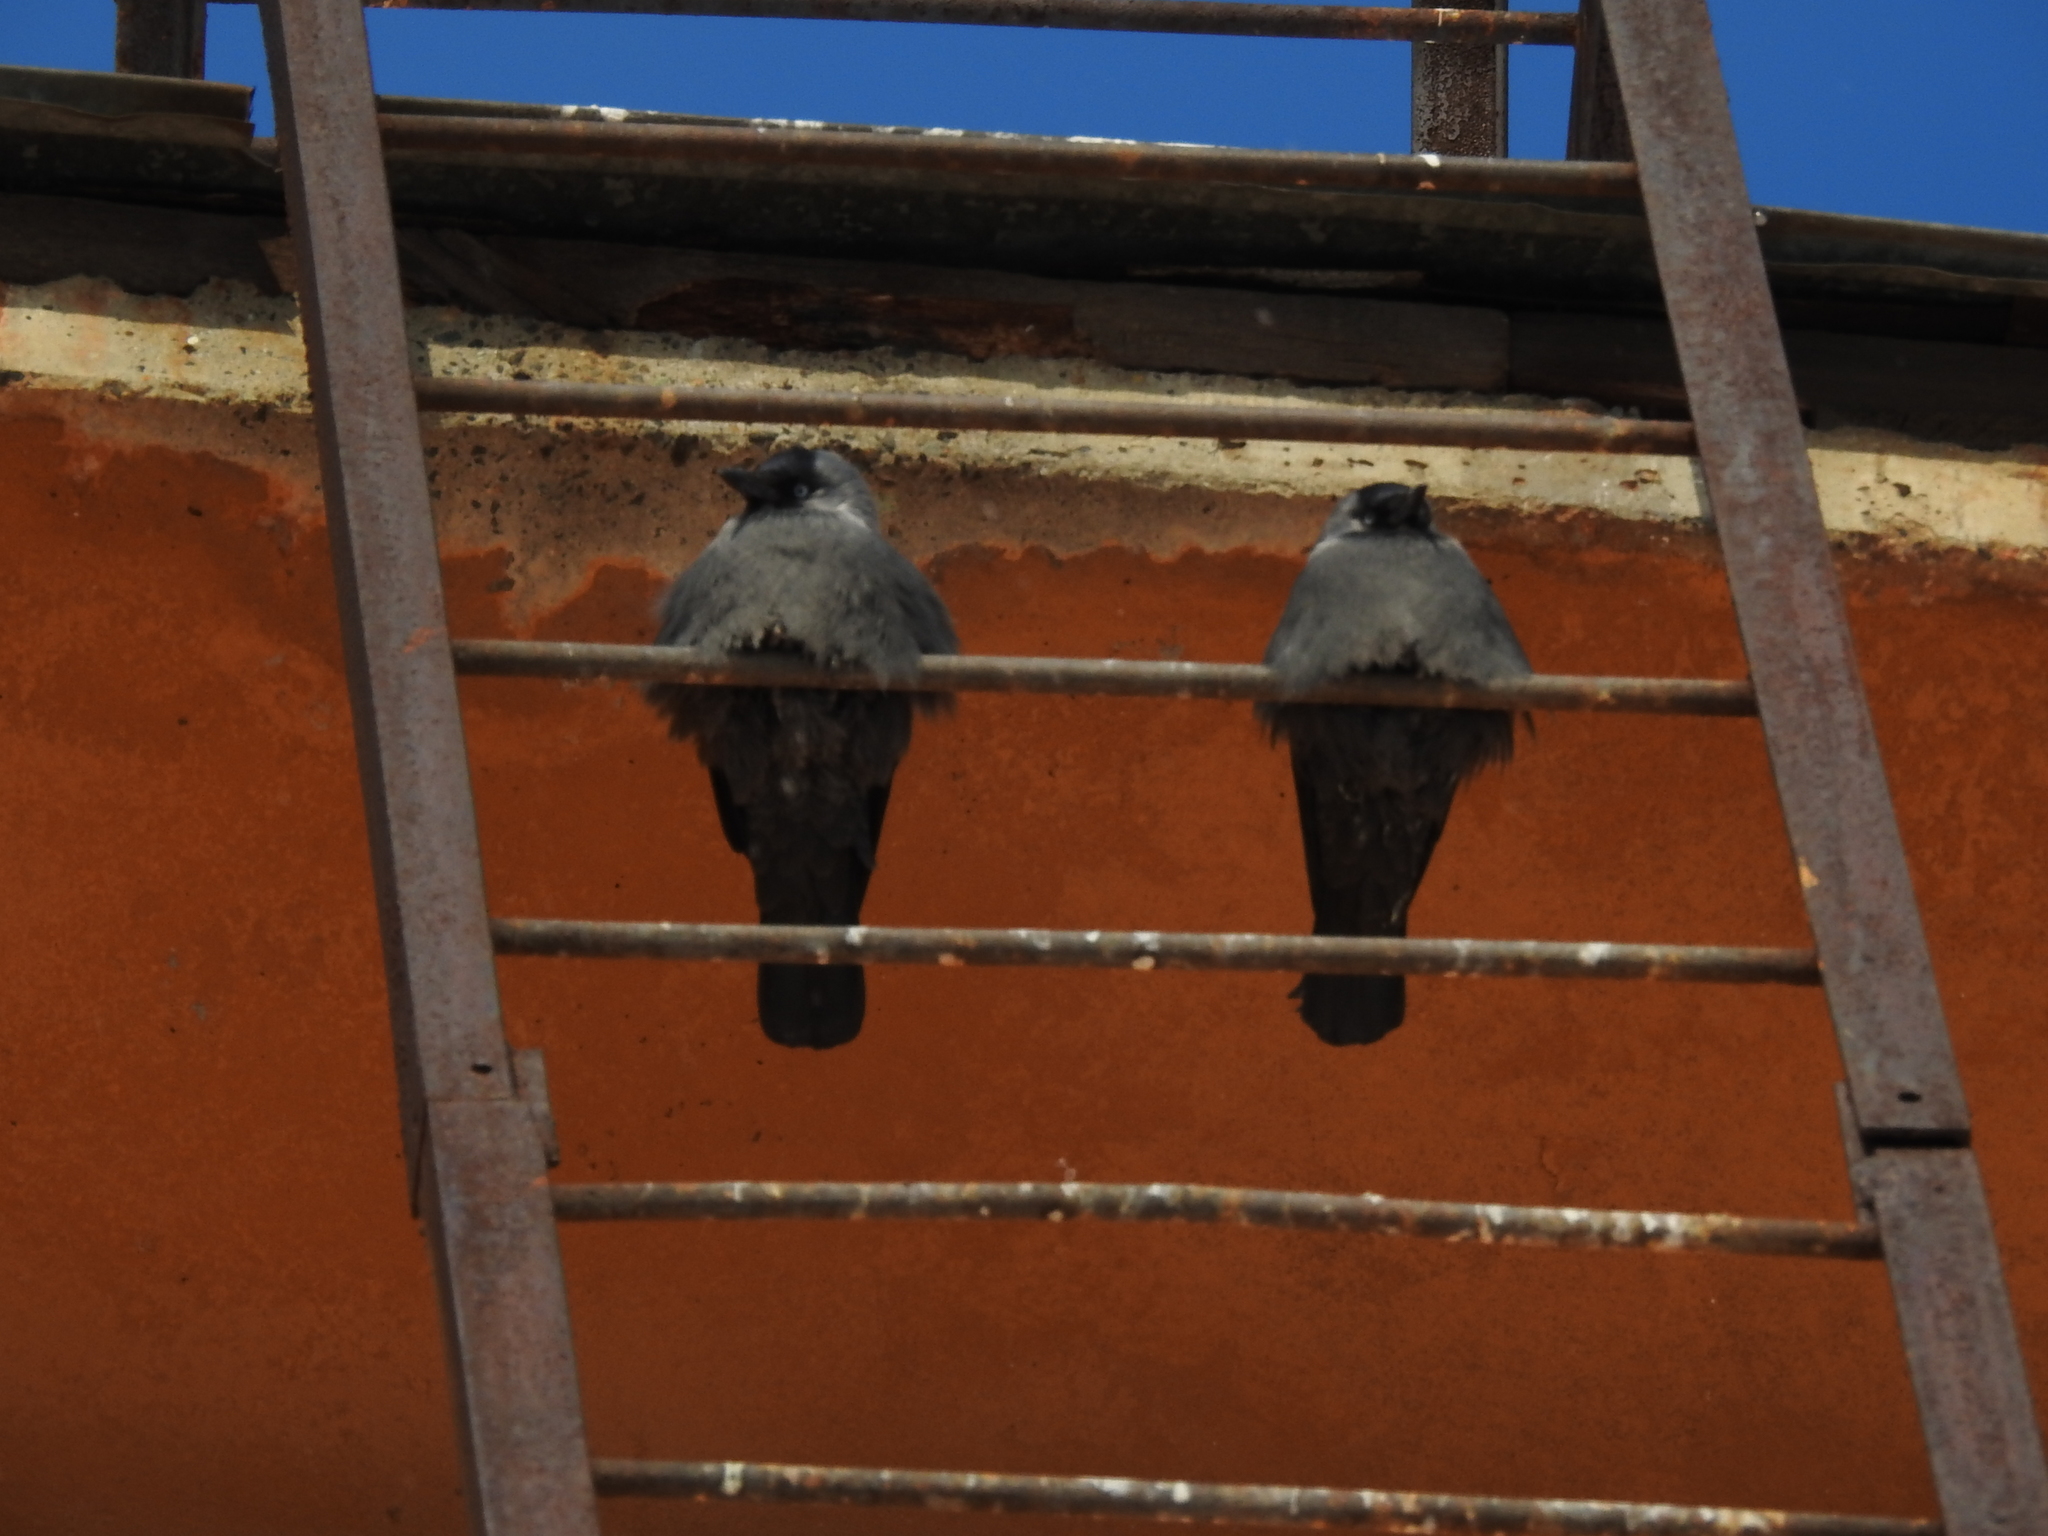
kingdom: Animalia
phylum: Chordata
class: Aves
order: Passeriformes
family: Corvidae
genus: Coloeus
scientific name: Coloeus monedula
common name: Western jackdaw
